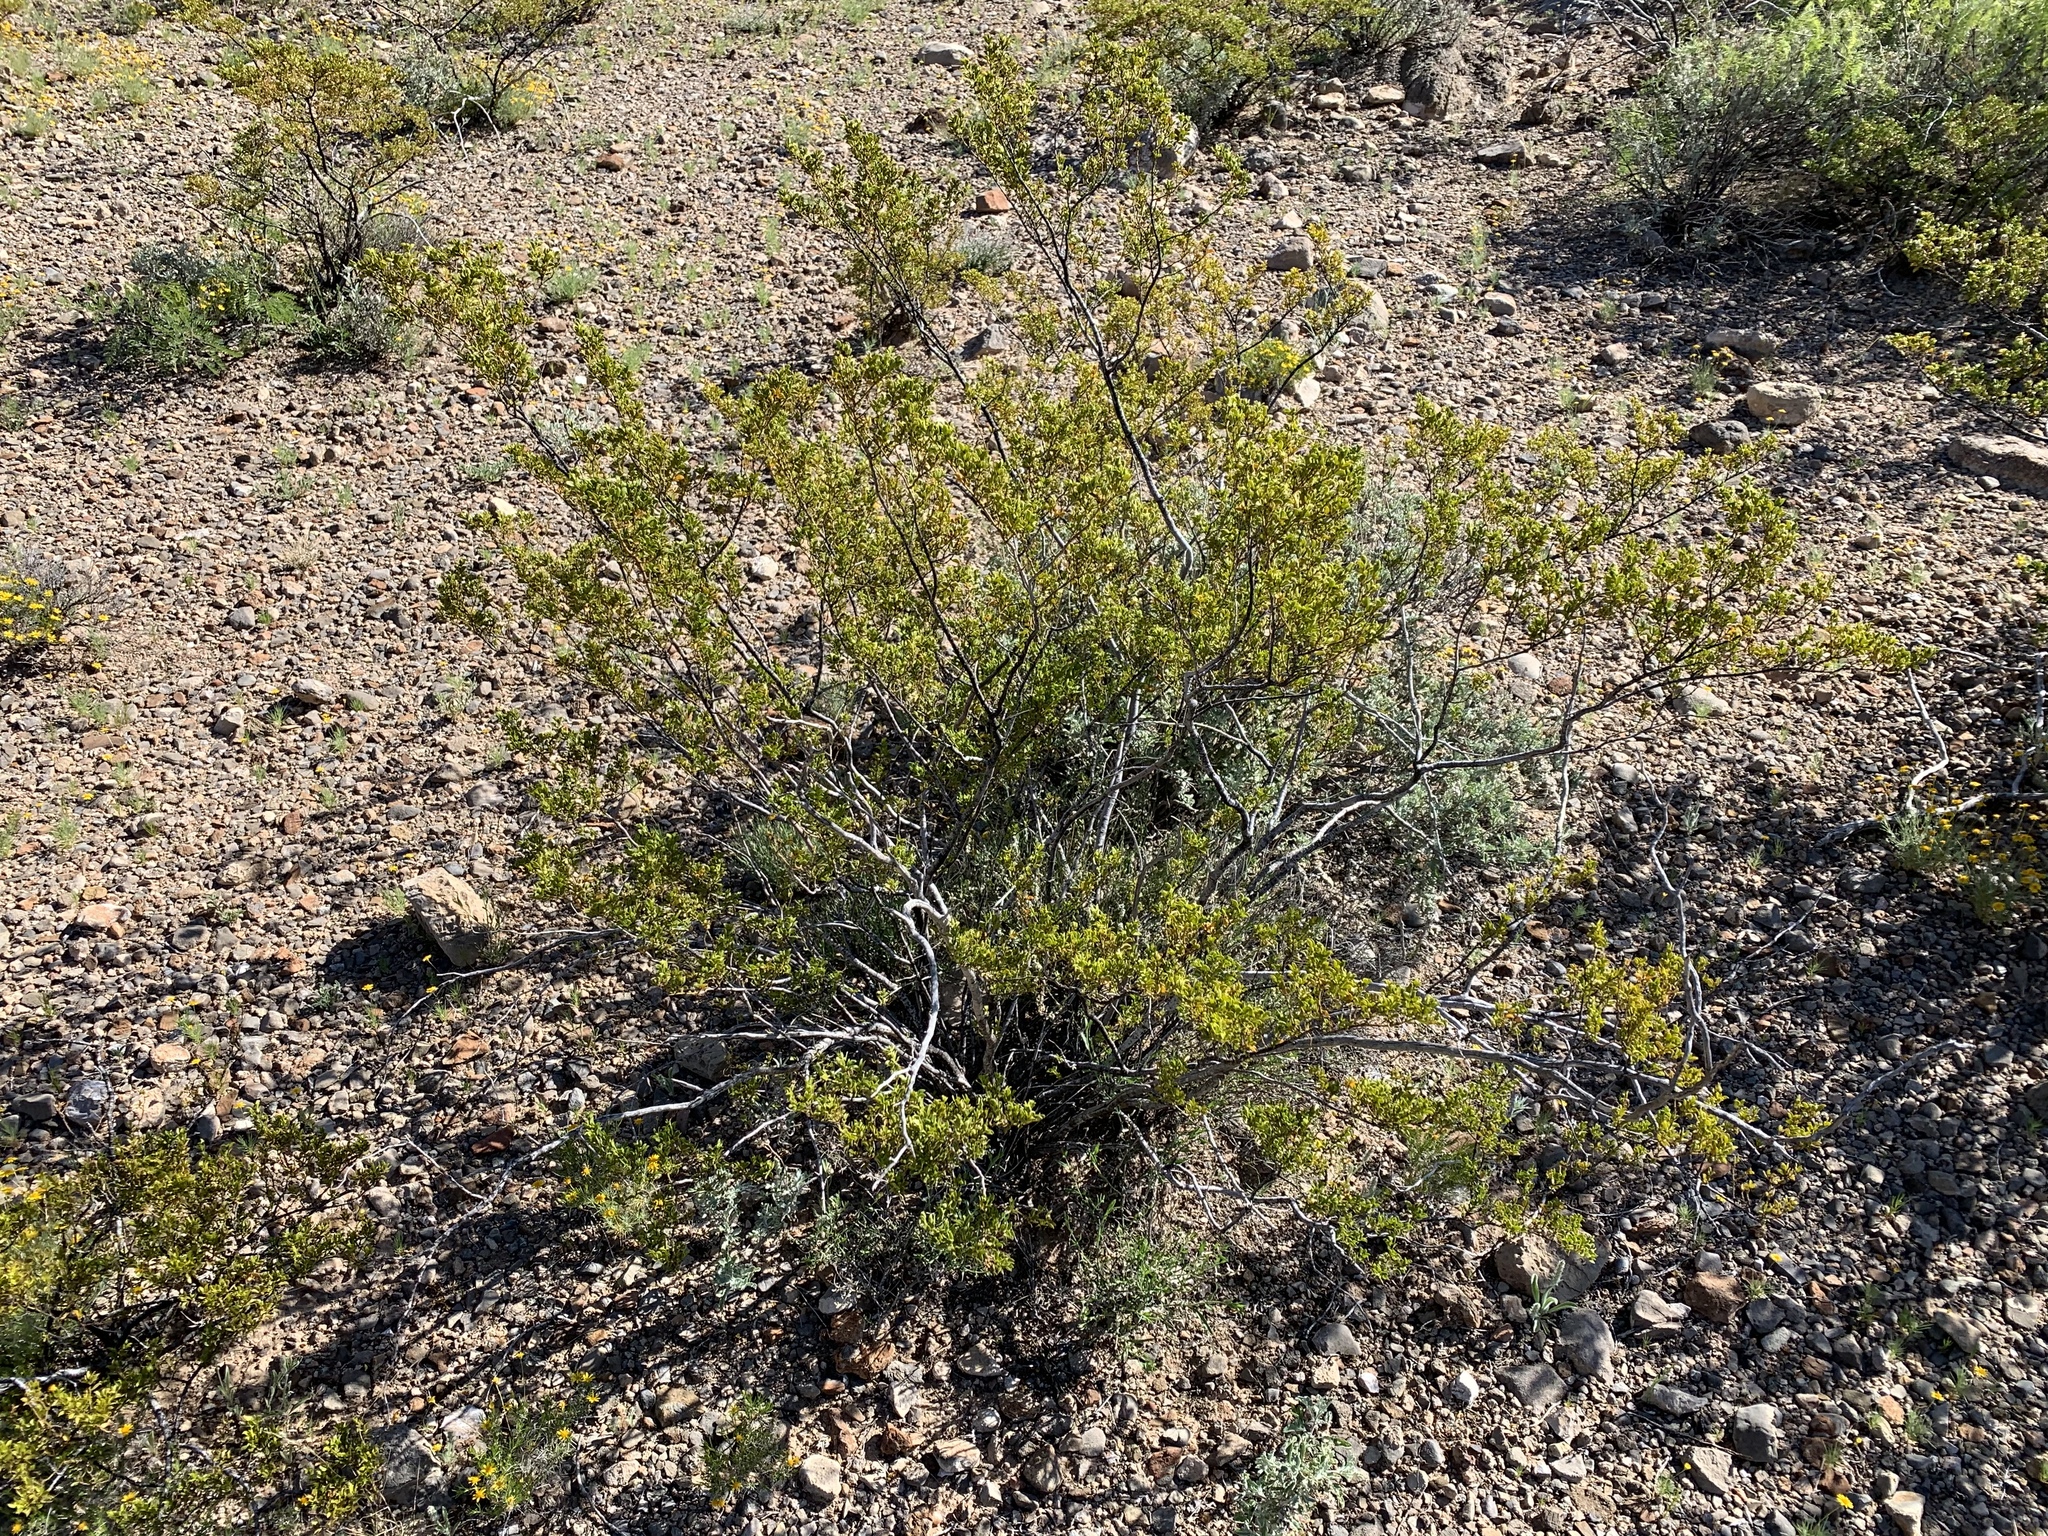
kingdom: Plantae
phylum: Tracheophyta
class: Magnoliopsida
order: Zygophyllales
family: Zygophyllaceae
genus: Larrea
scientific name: Larrea tridentata
